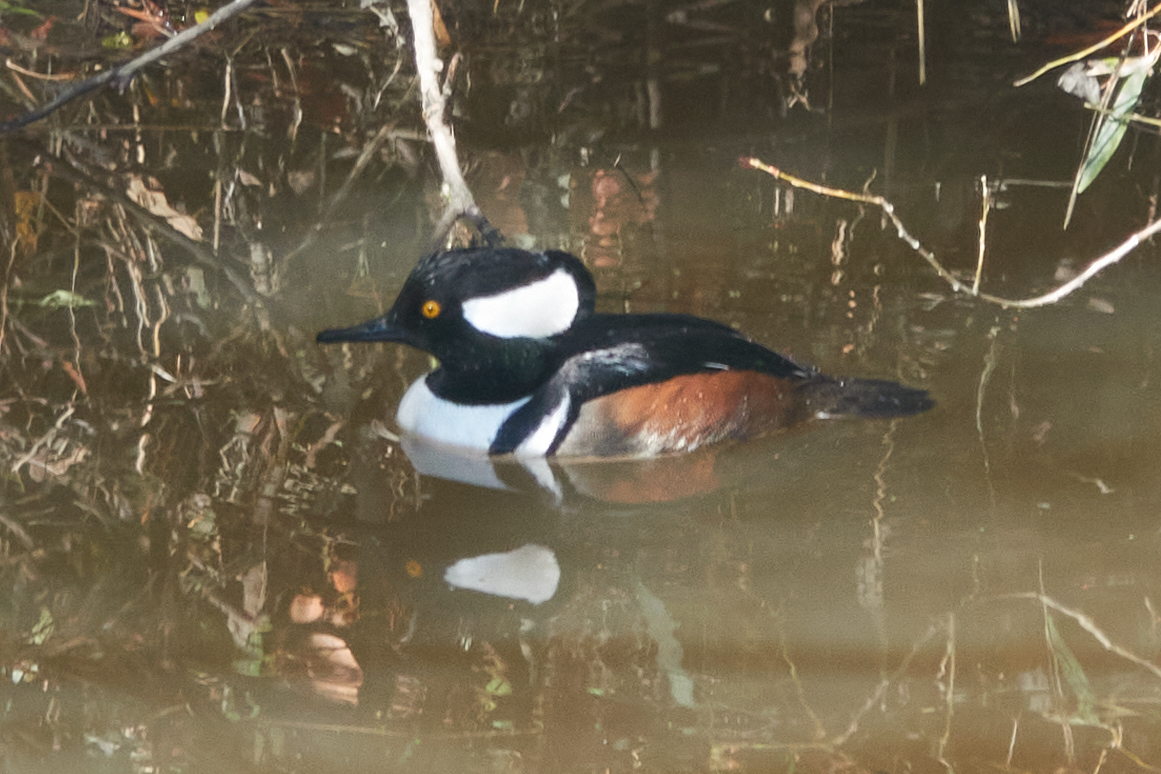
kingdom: Animalia
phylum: Chordata
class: Aves
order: Anseriformes
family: Anatidae
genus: Lophodytes
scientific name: Lophodytes cucullatus
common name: Hooded merganser
